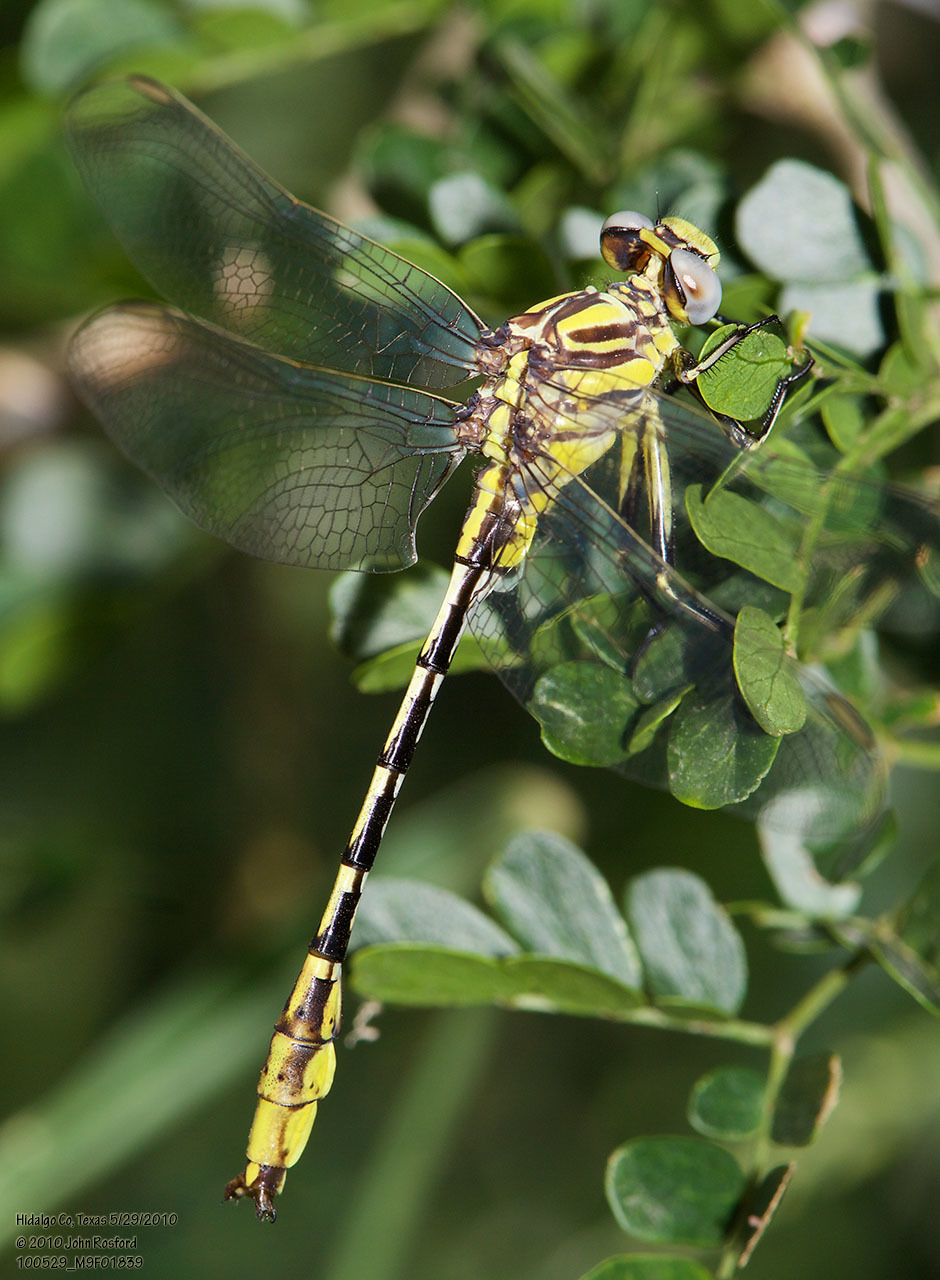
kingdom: Animalia
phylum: Arthropoda
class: Insecta
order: Odonata
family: Gomphidae
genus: Phanogomphus
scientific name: Phanogomphus militaris
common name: Sulphur-tipped clubtail
